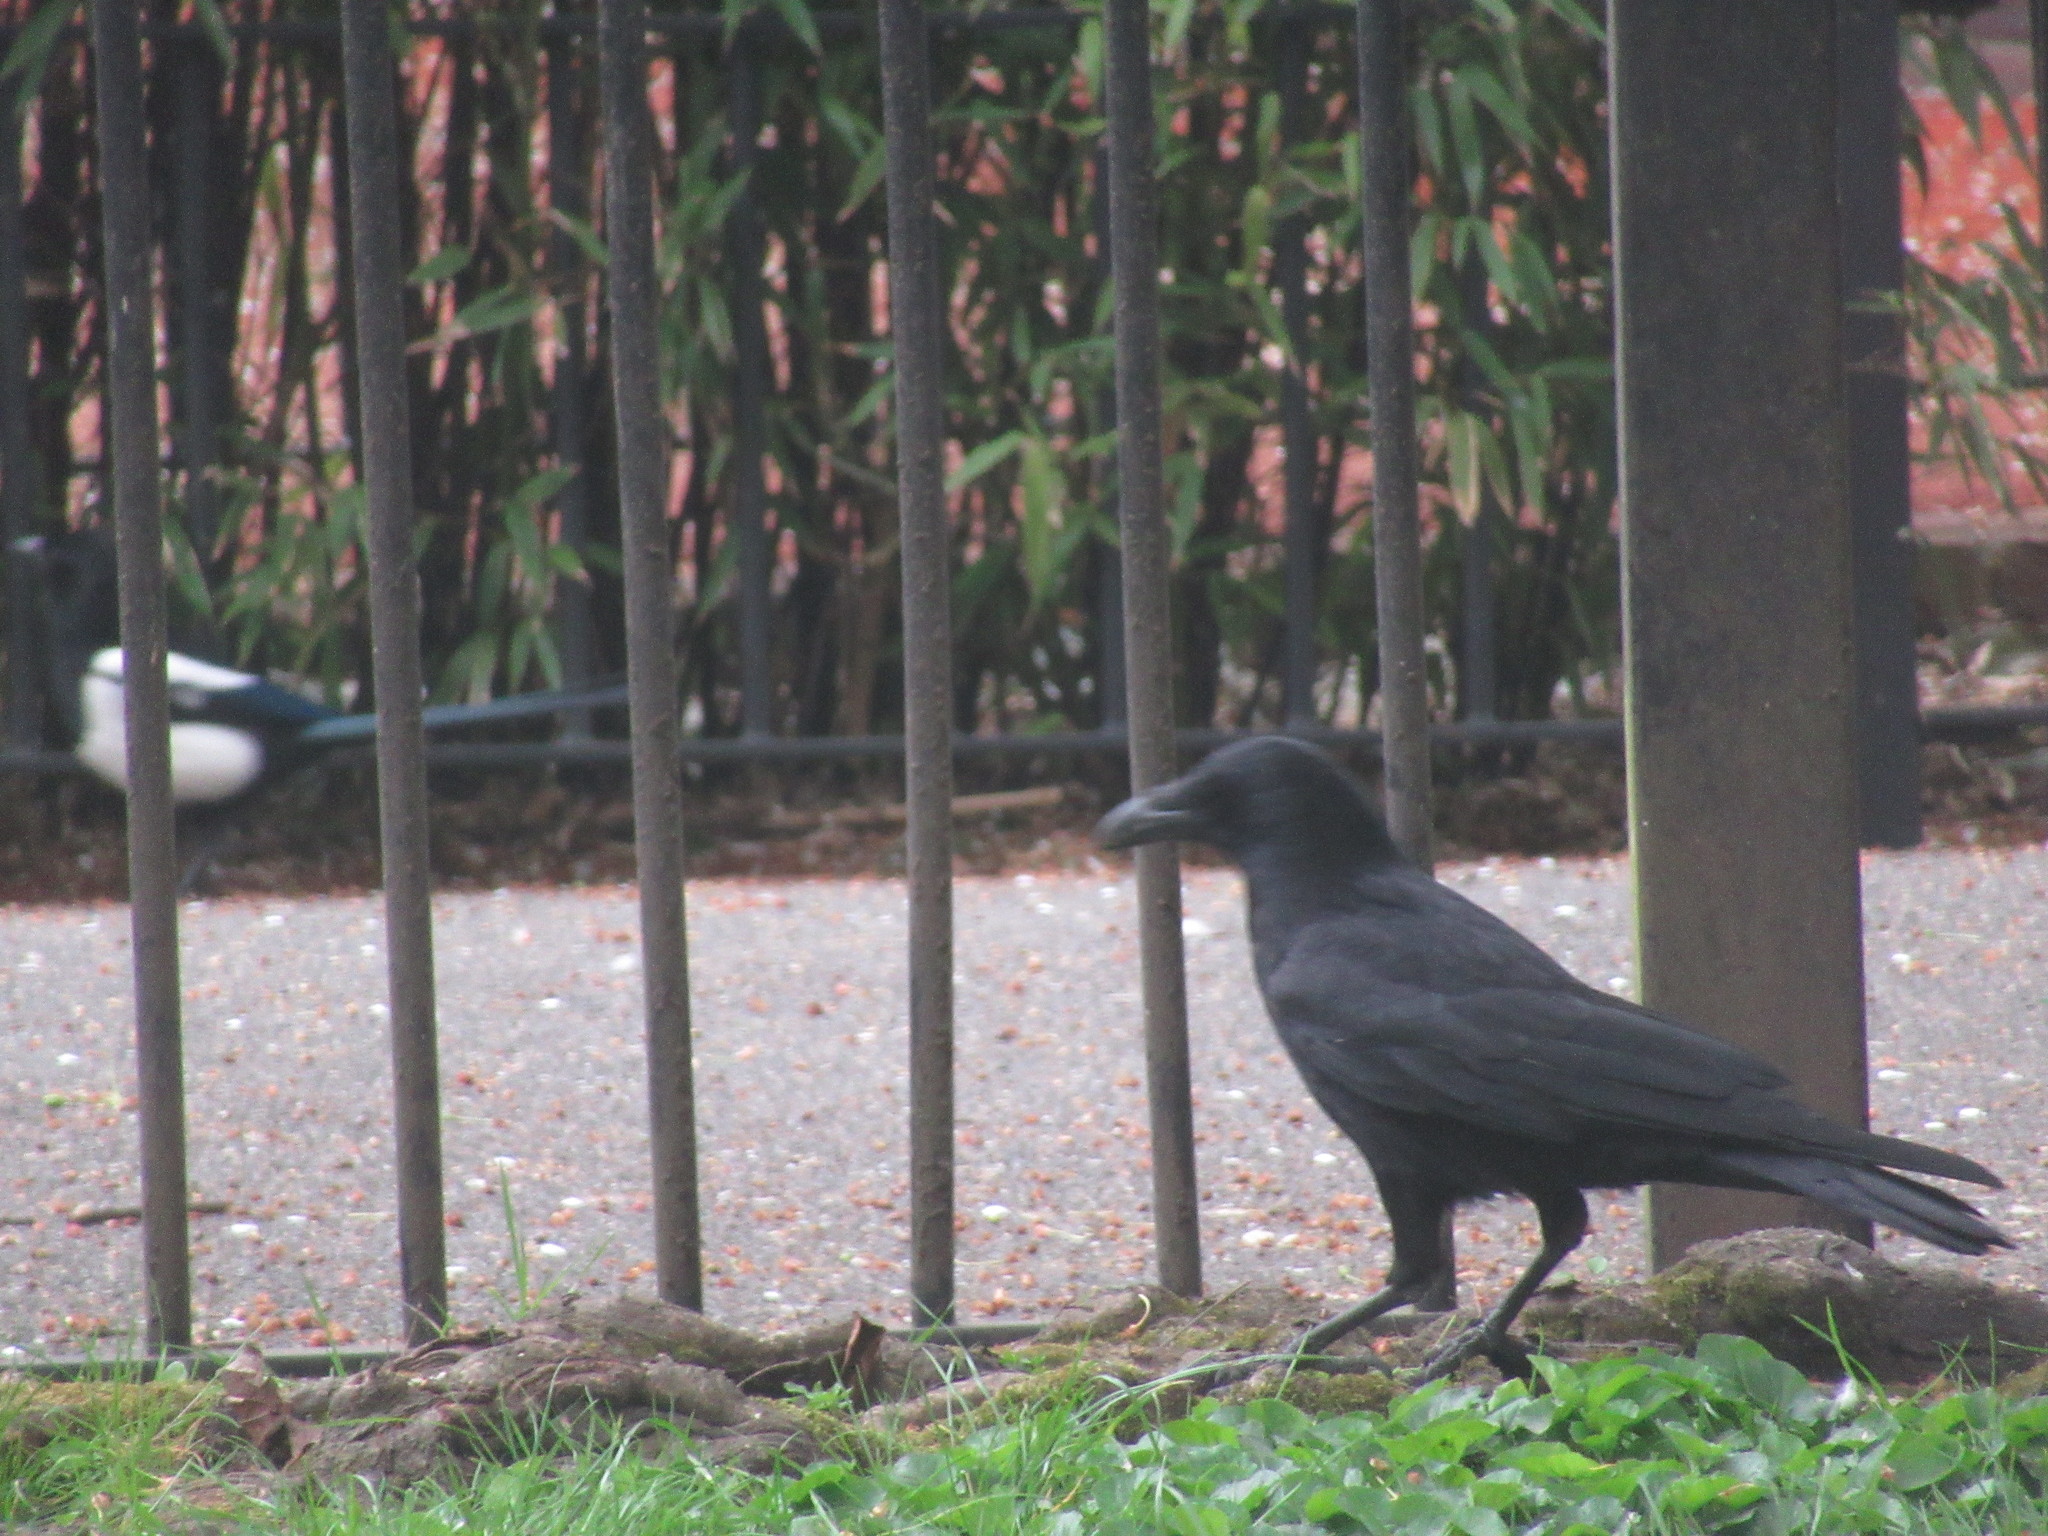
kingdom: Animalia
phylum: Chordata
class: Aves
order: Passeriformes
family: Corvidae
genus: Corvus
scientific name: Corvus corone
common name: Carrion crow
